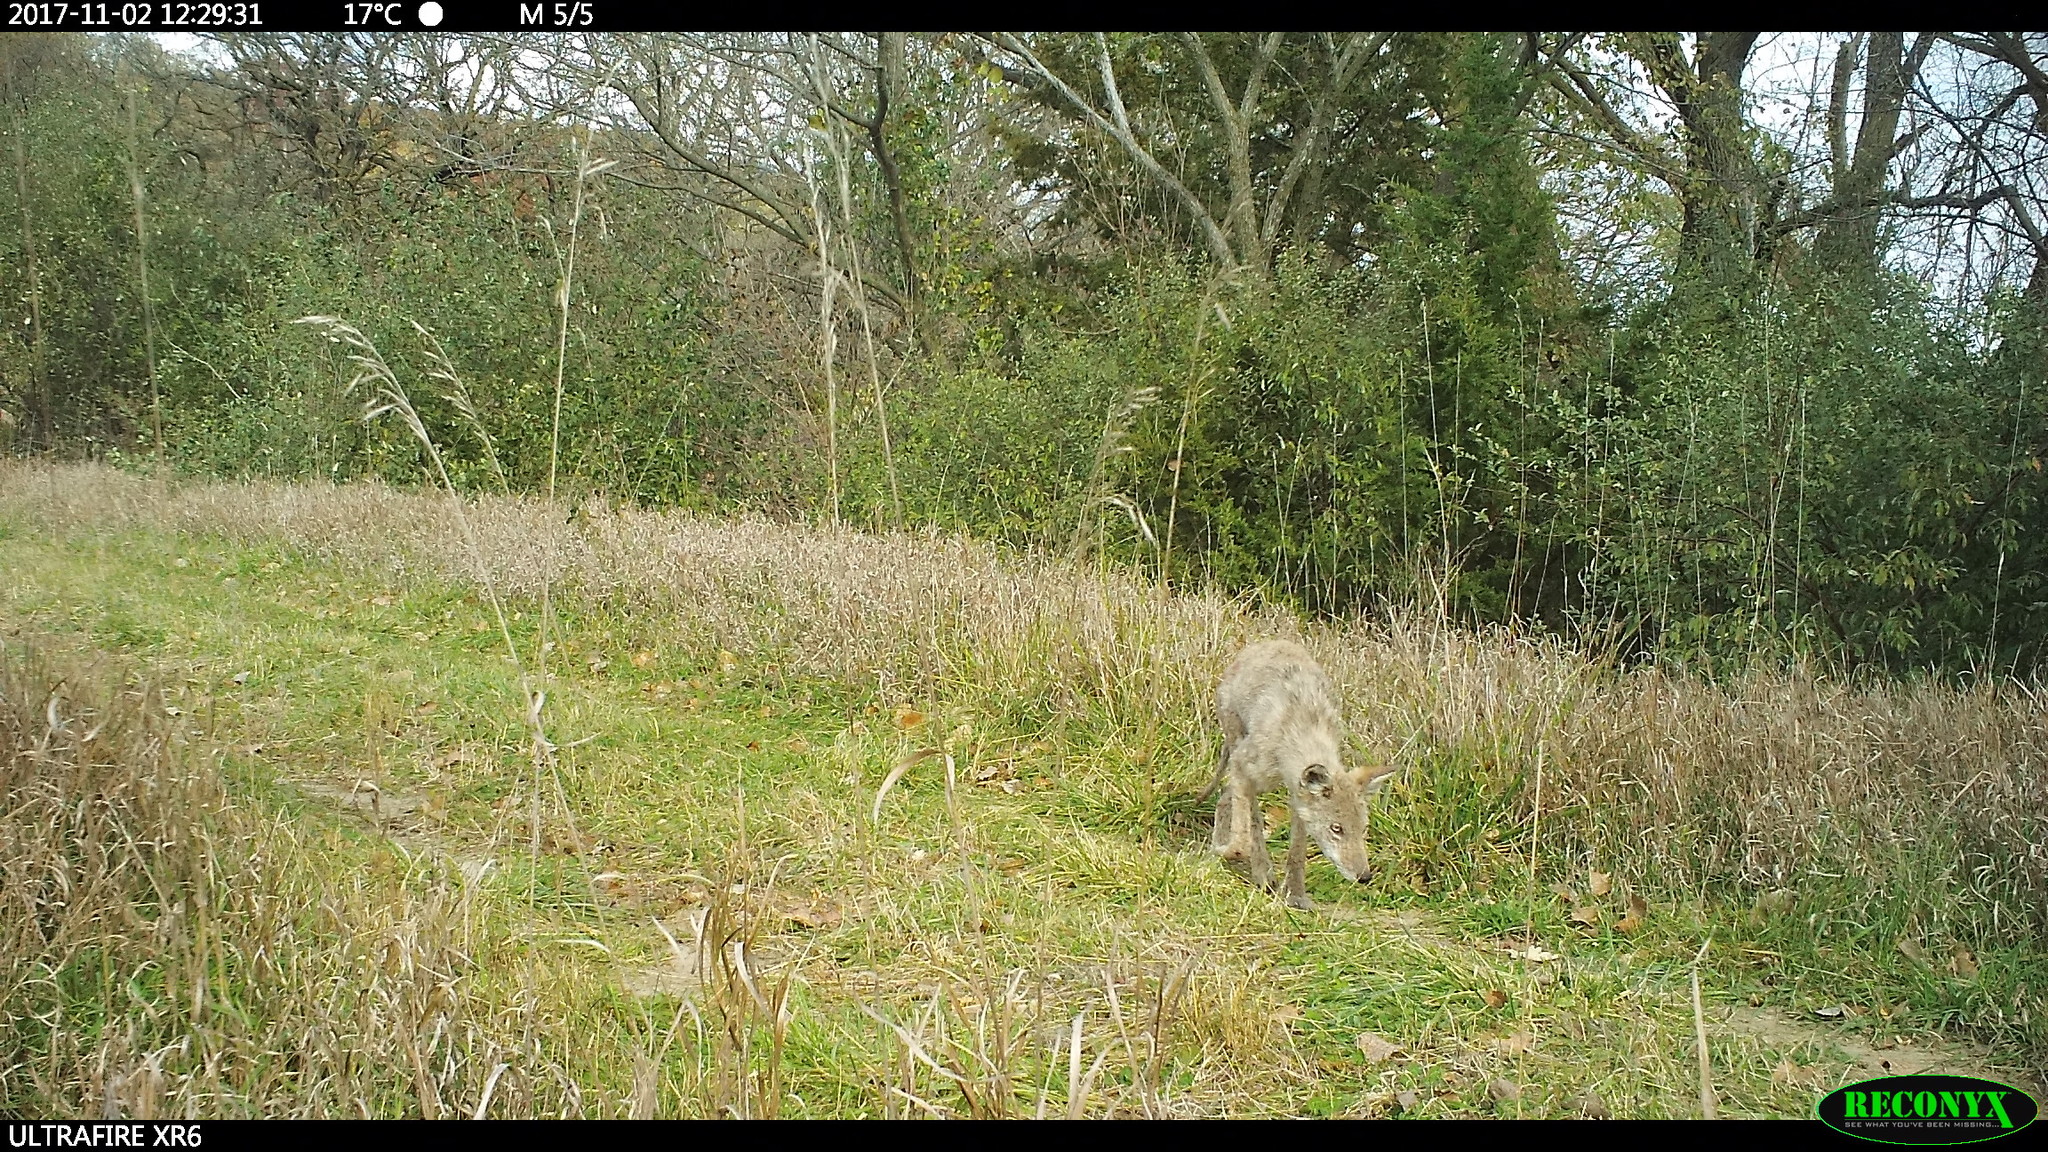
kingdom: Animalia
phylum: Chordata
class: Mammalia
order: Carnivora
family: Canidae
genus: Canis
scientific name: Canis latrans
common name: Coyote
